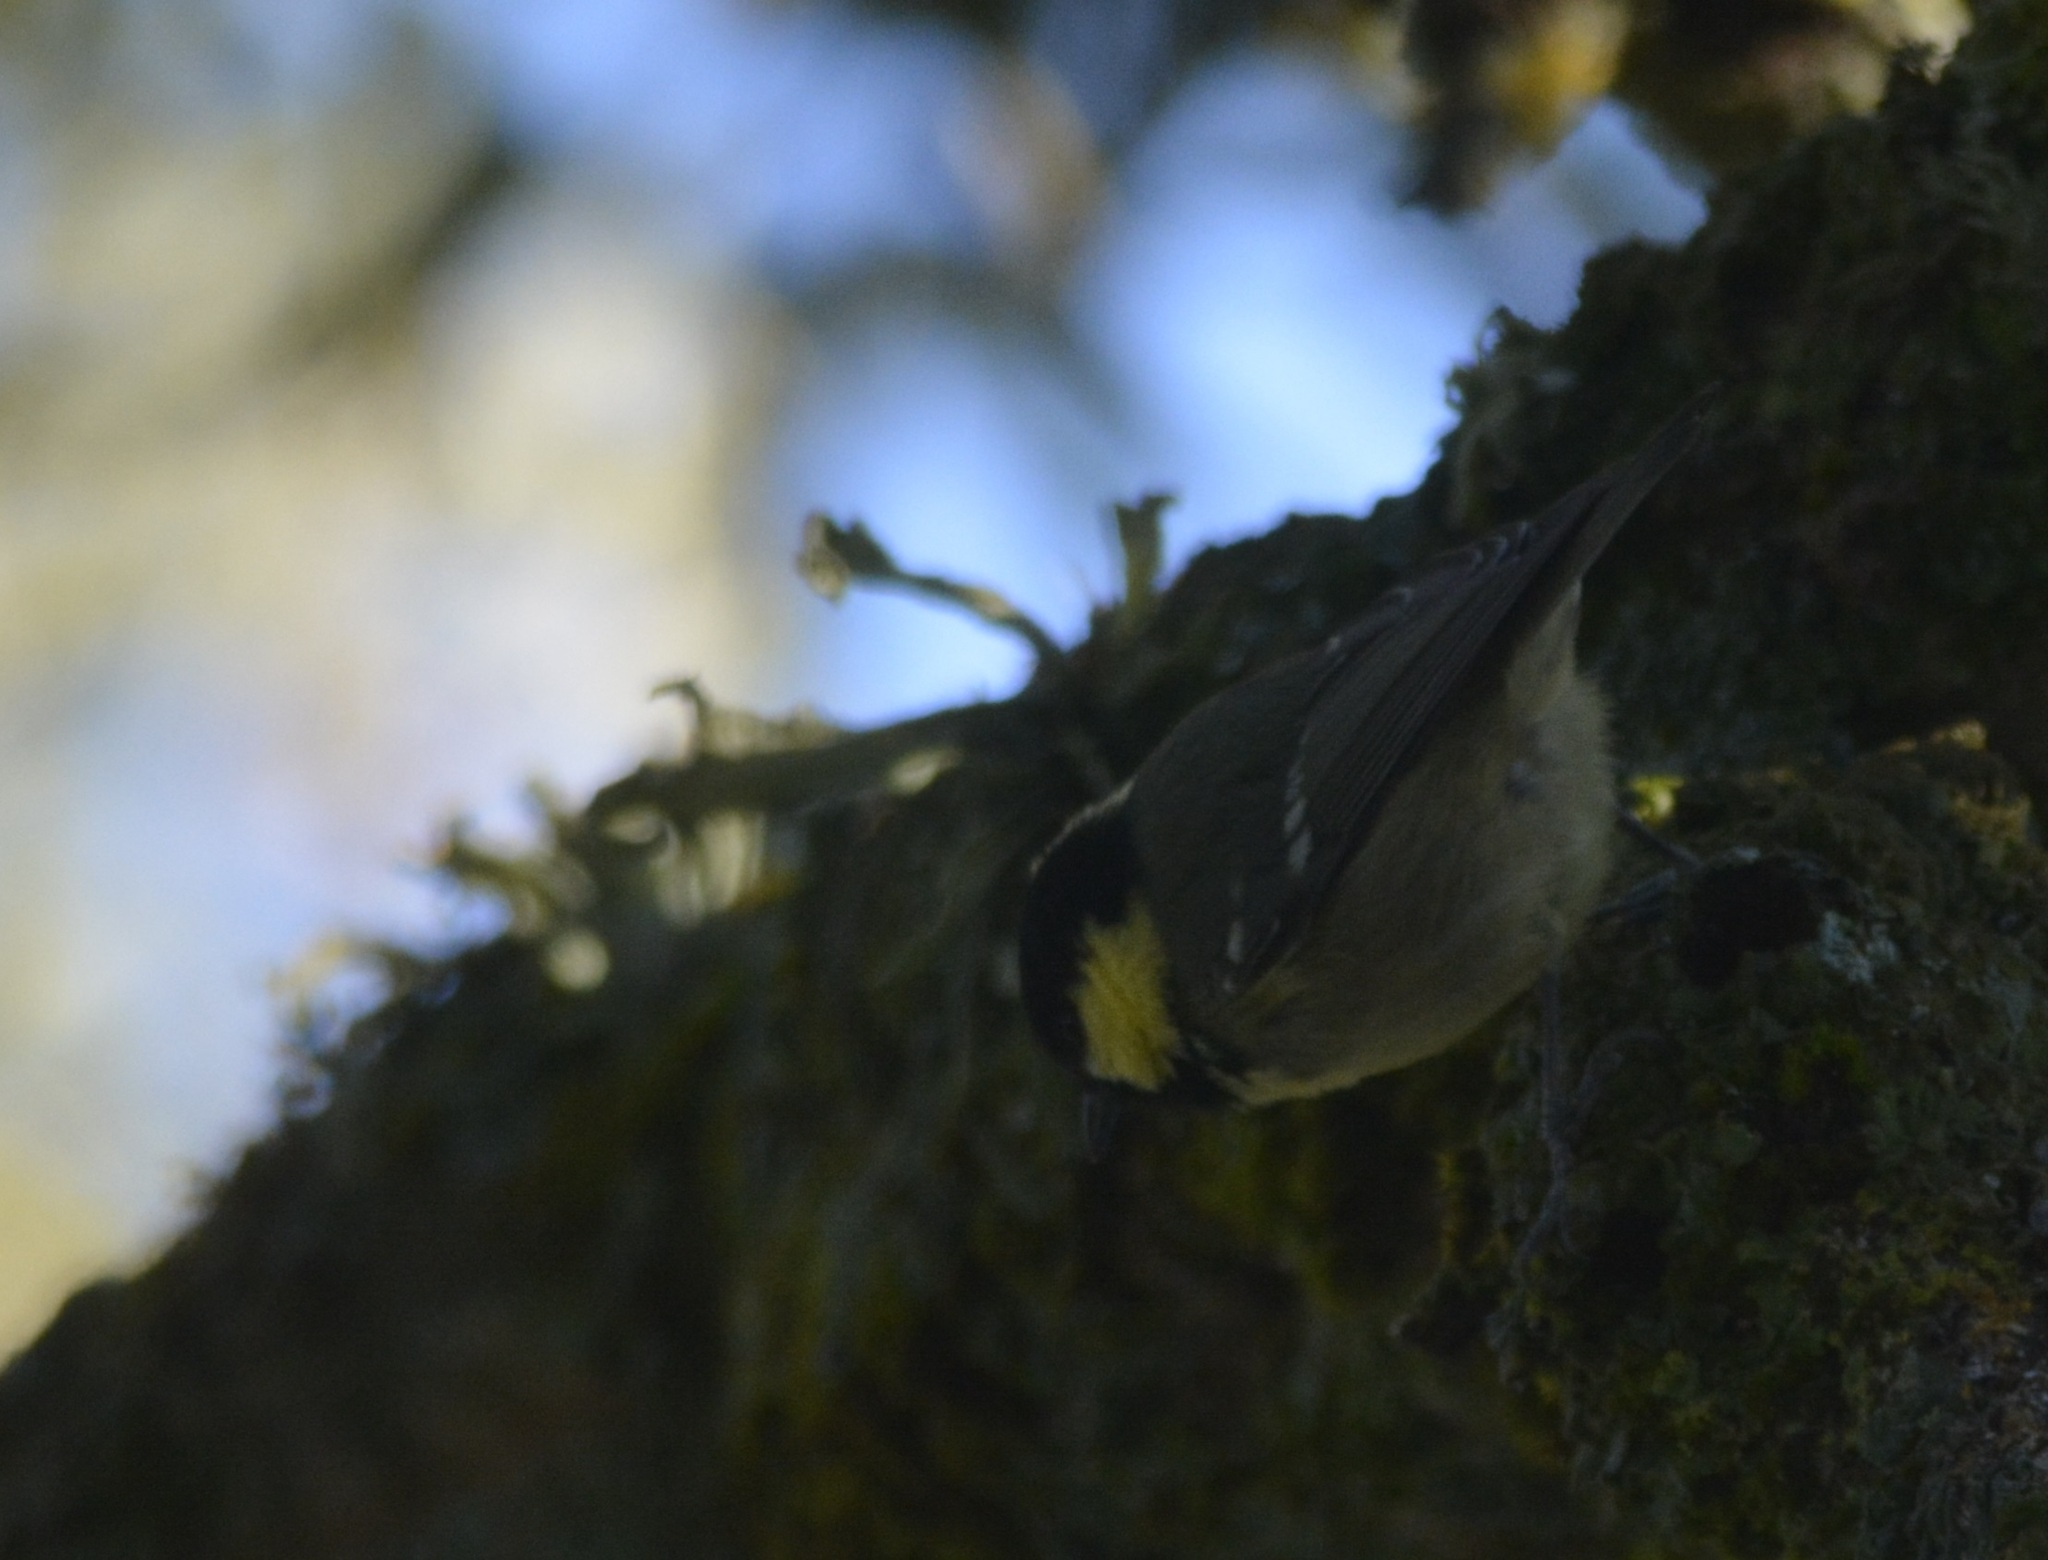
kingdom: Animalia
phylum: Chordata
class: Aves
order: Passeriformes
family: Paridae
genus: Periparus
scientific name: Periparus ater
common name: Coal tit
